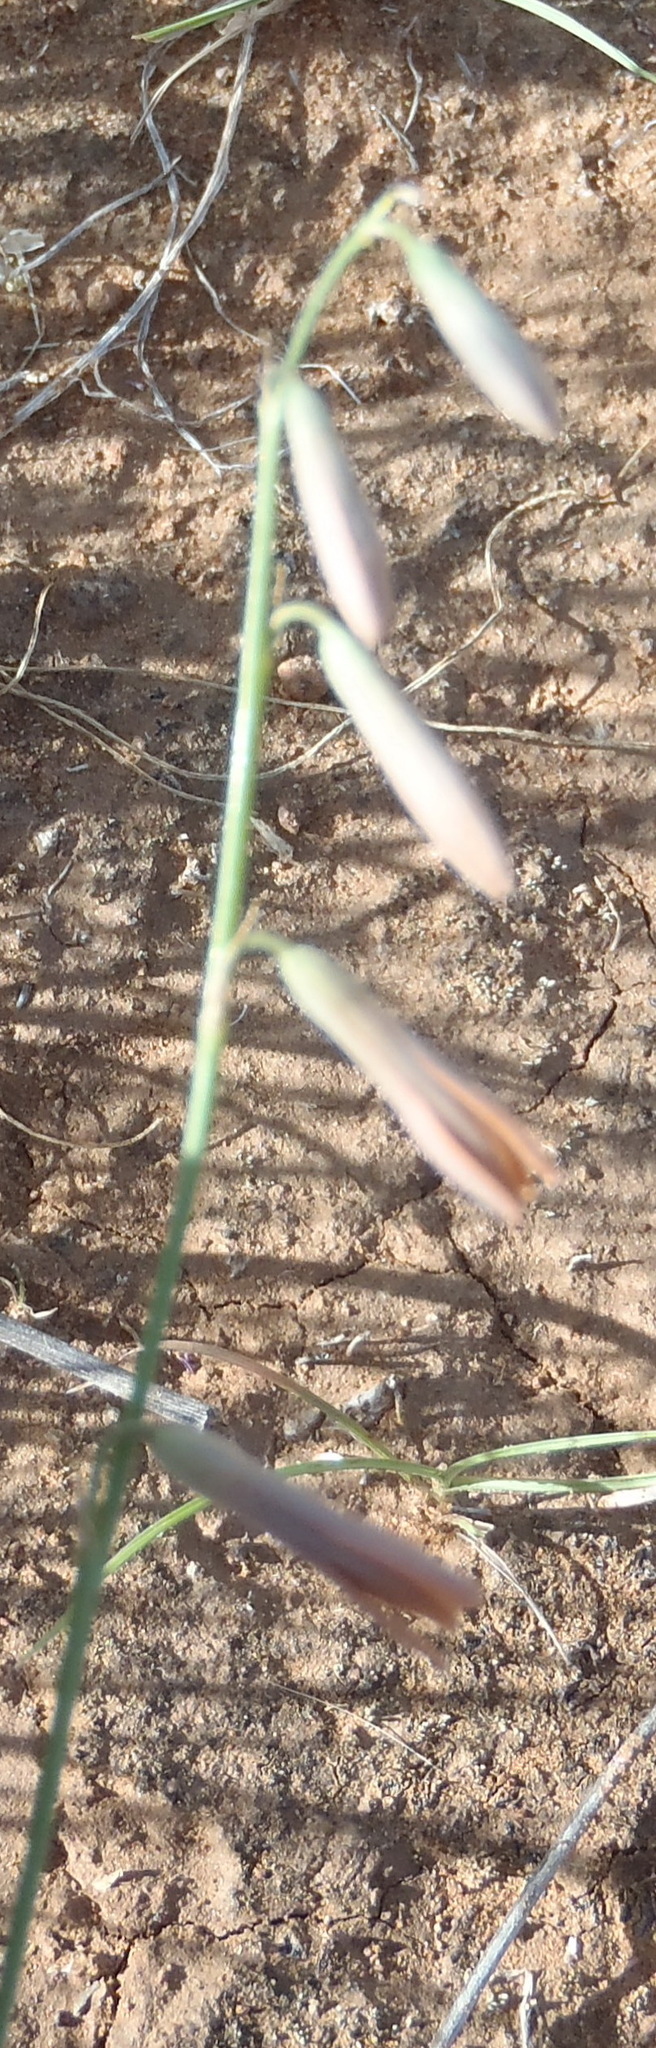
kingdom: Plantae
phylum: Tracheophyta
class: Liliopsida
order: Asparagales
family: Asparagaceae
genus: Dipcadi
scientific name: Dipcadi ciliare
